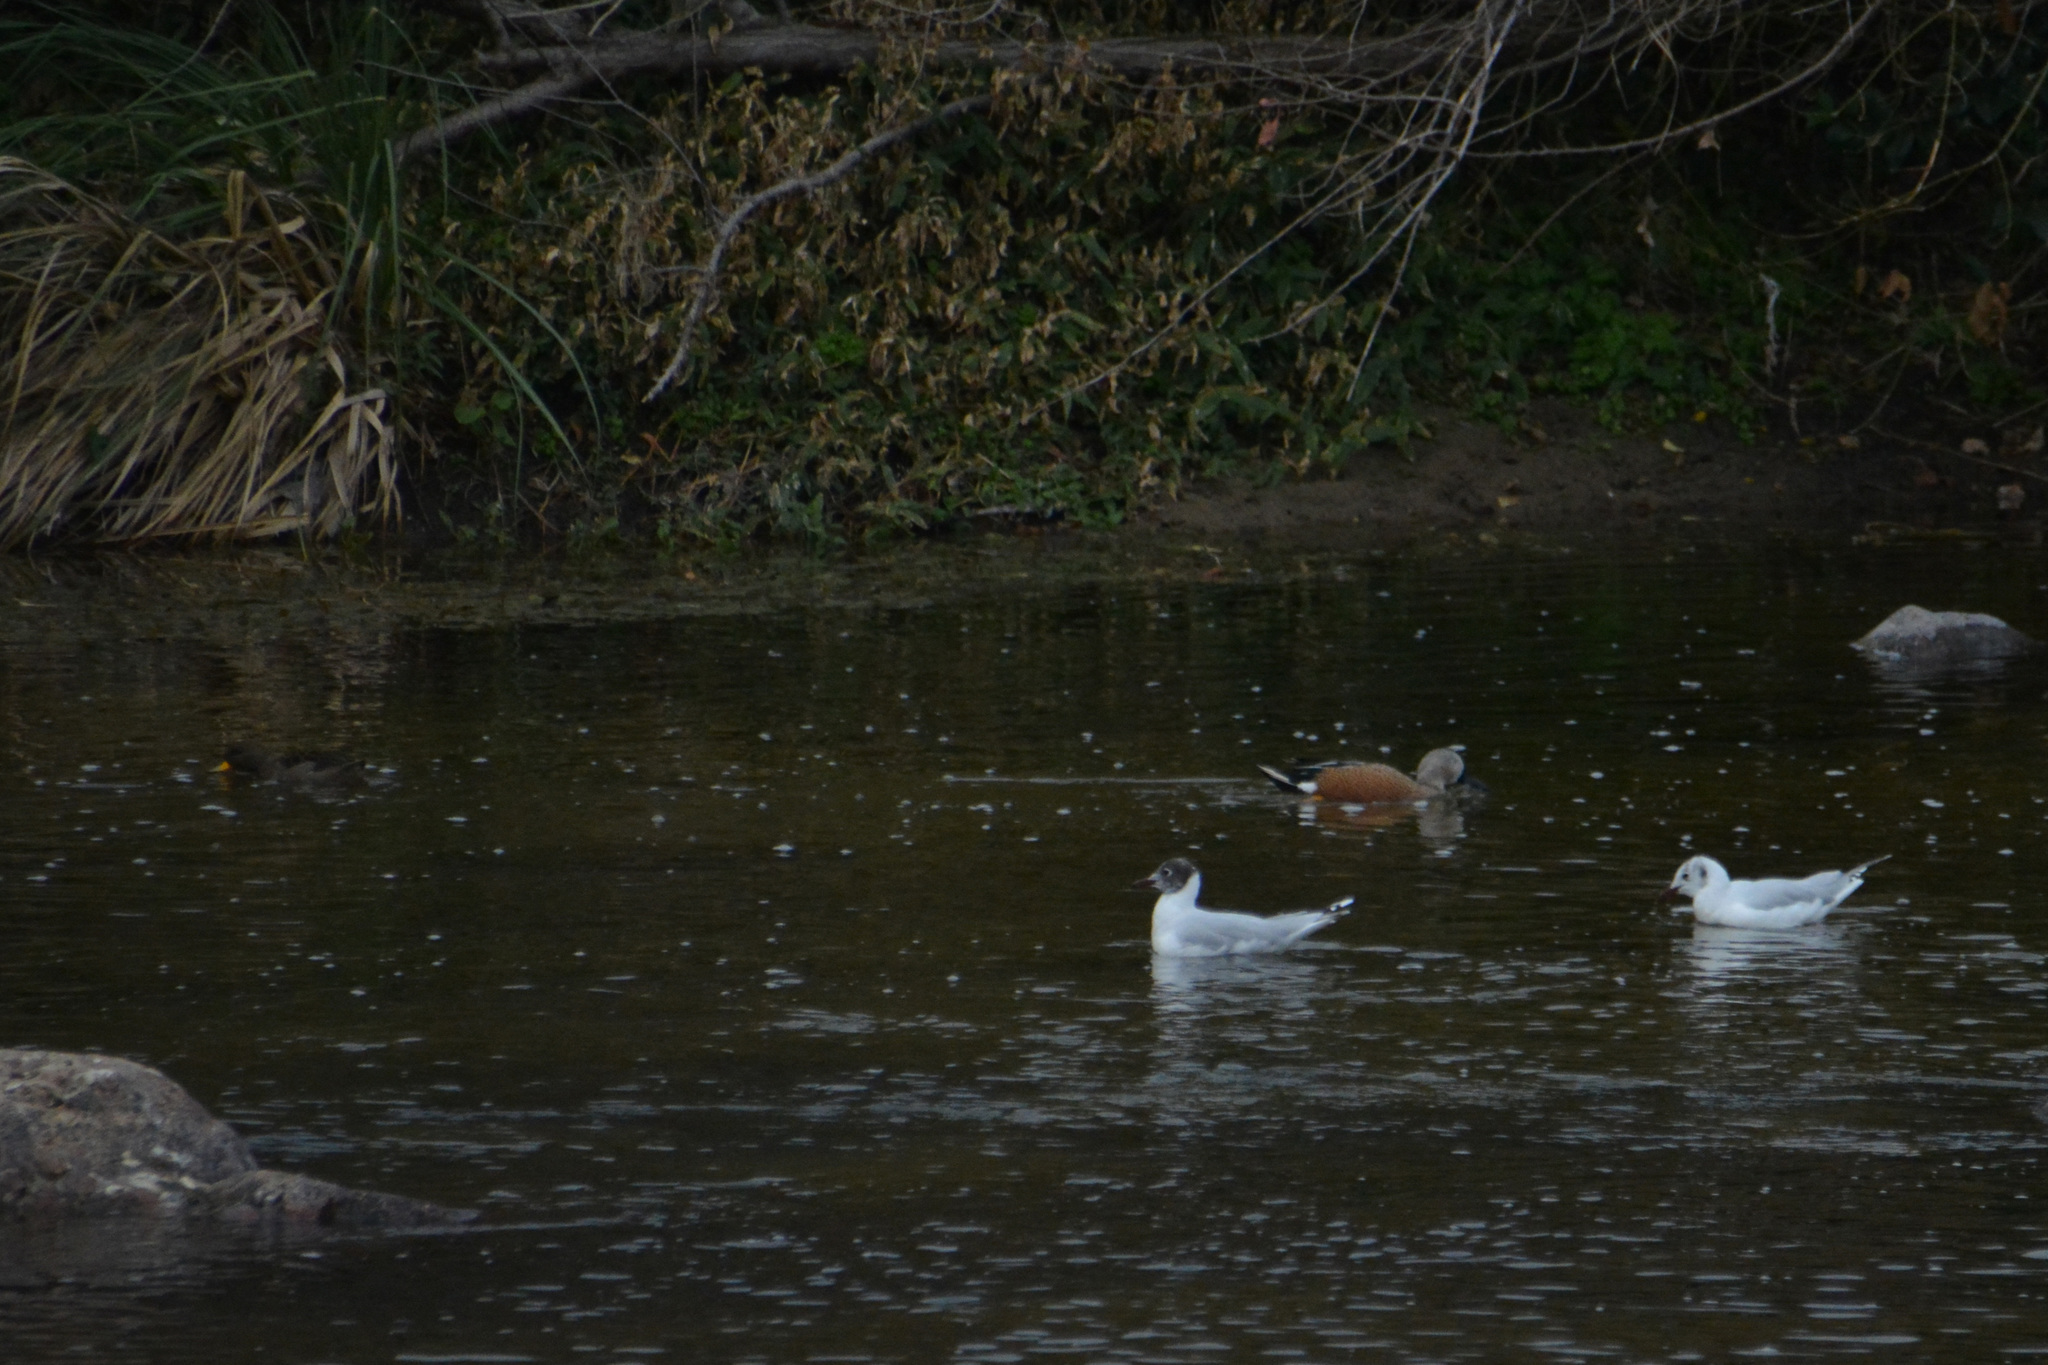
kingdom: Animalia
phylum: Chordata
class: Aves
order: Anseriformes
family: Anatidae
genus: Anas
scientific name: Anas flavirostris
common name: Yellow-billed teal
